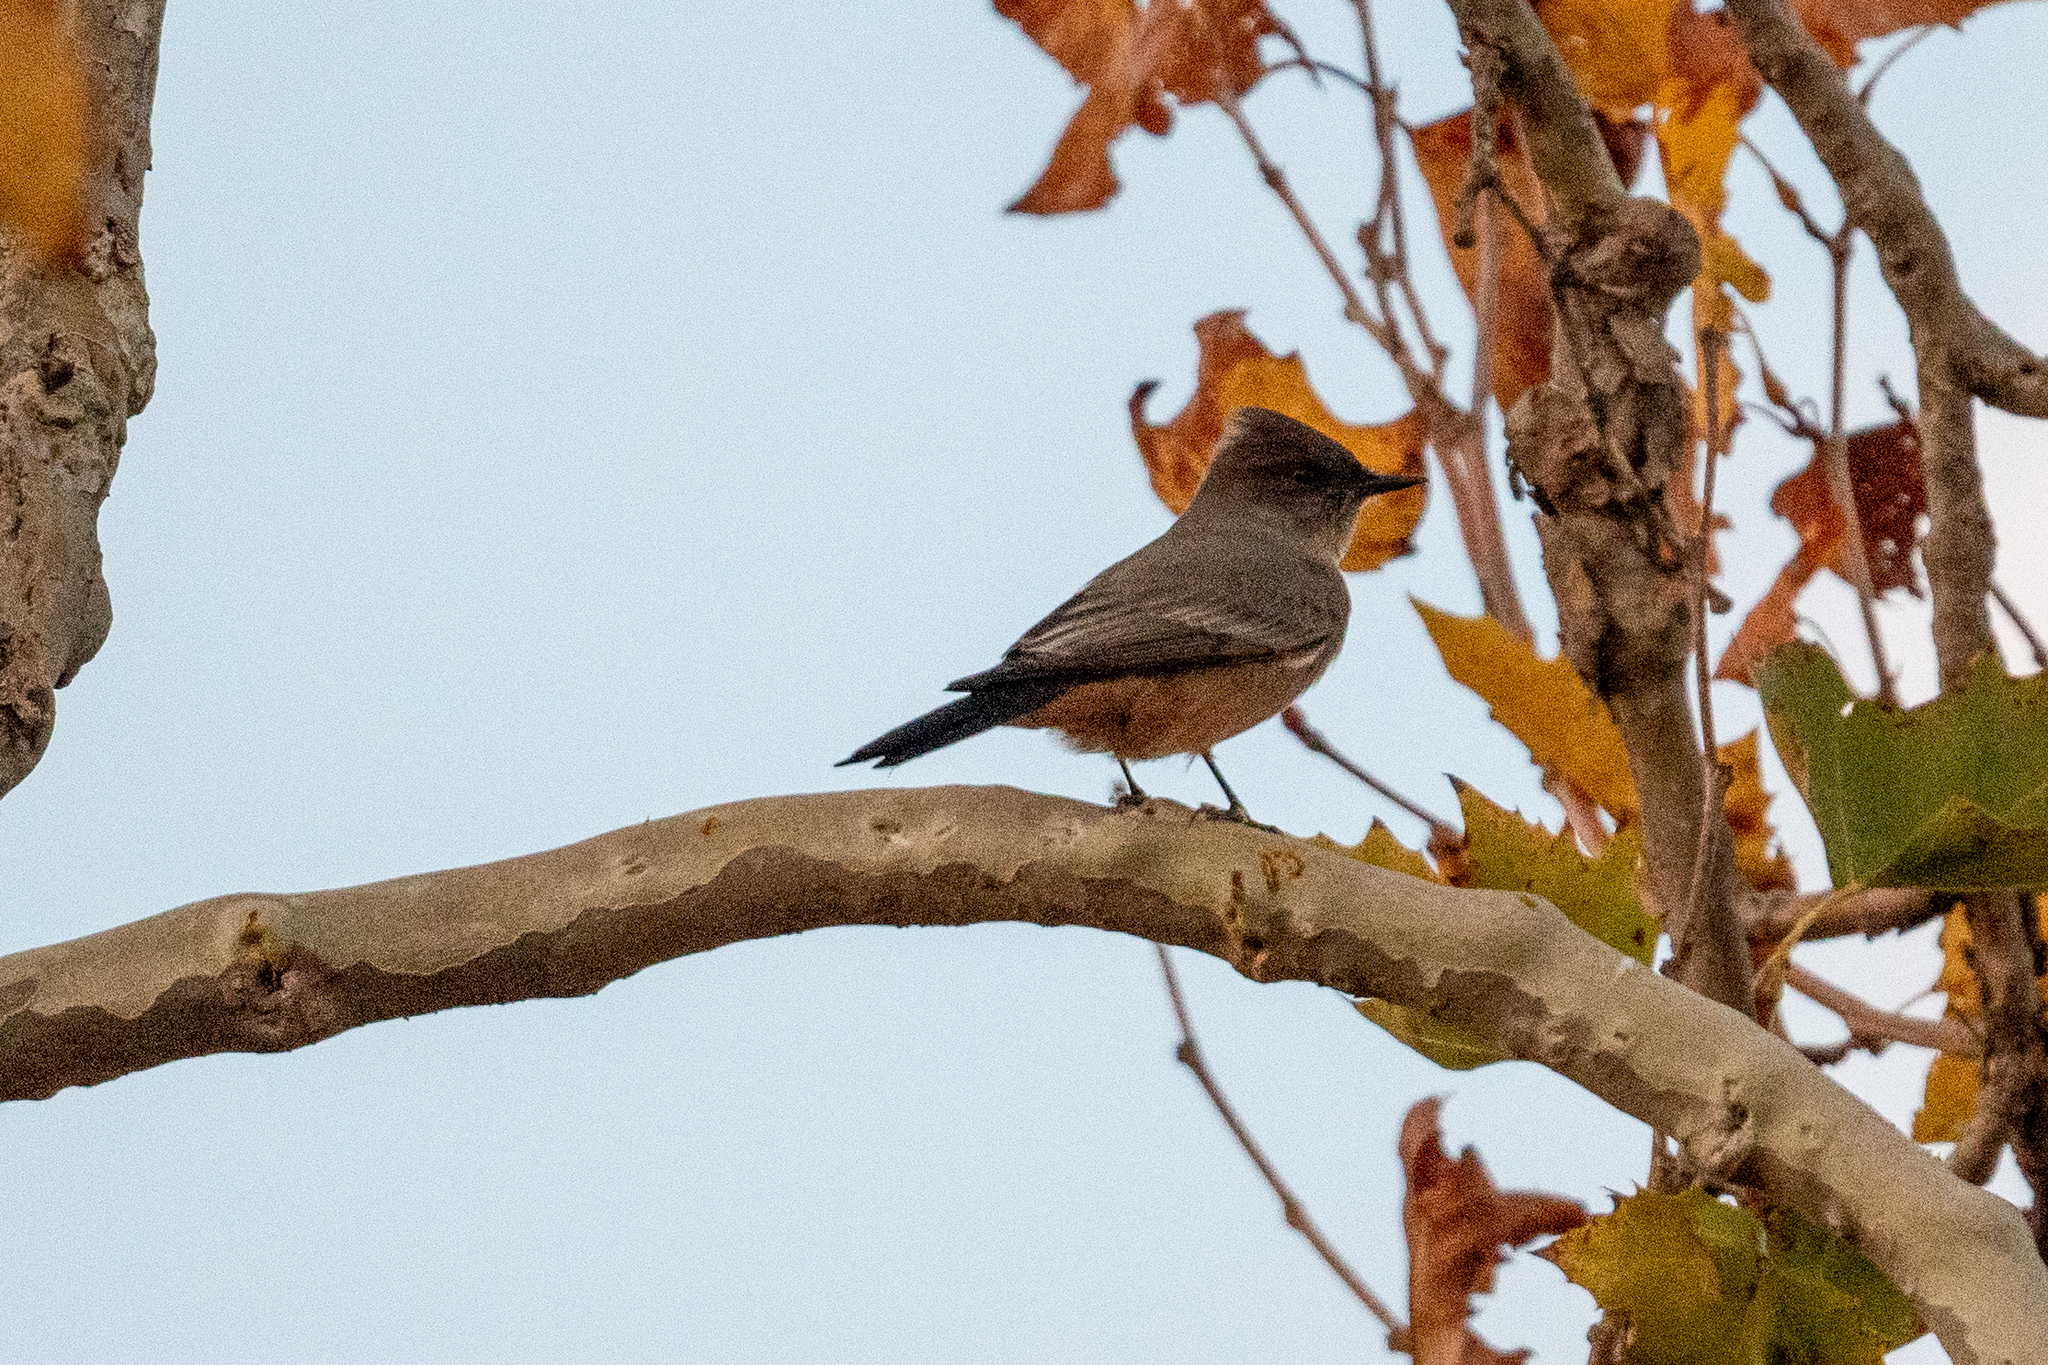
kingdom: Animalia
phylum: Chordata
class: Aves
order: Passeriformes
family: Tyrannidae
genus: Sayornis
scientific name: Sayornis saya
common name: Say's phoebe
